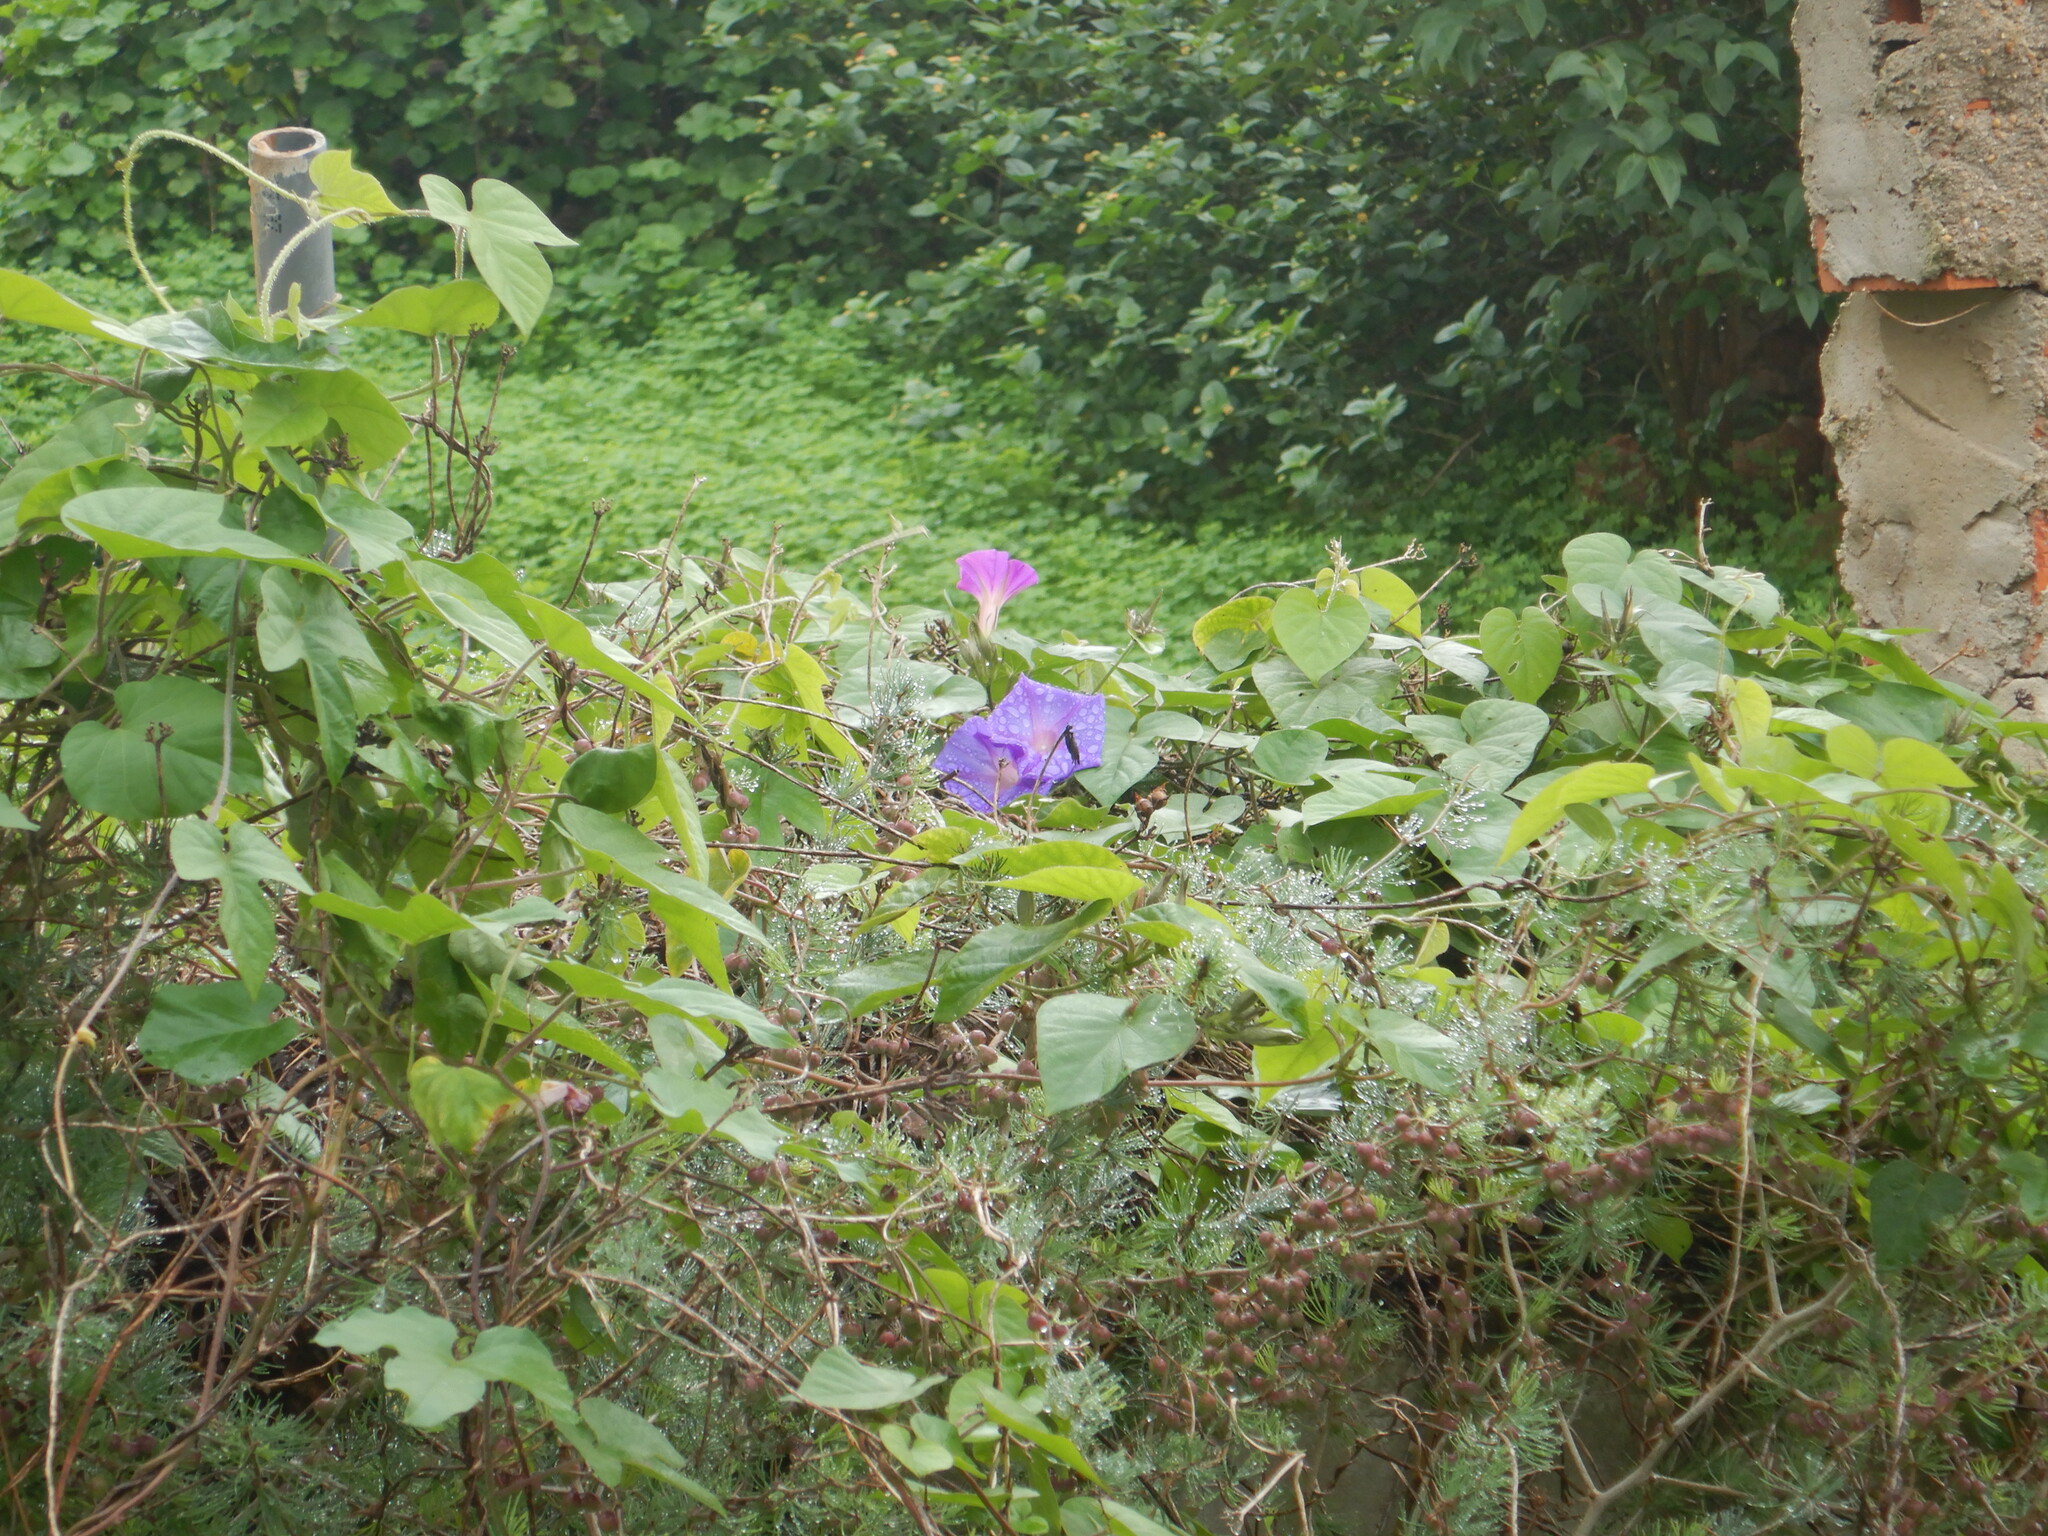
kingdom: Plantae
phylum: Tracheophyta
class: Magnoliopsida
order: Solanales
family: Convolvulaceae
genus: Ipomoea
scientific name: Ipomoea indica
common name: Blue dawnflower
